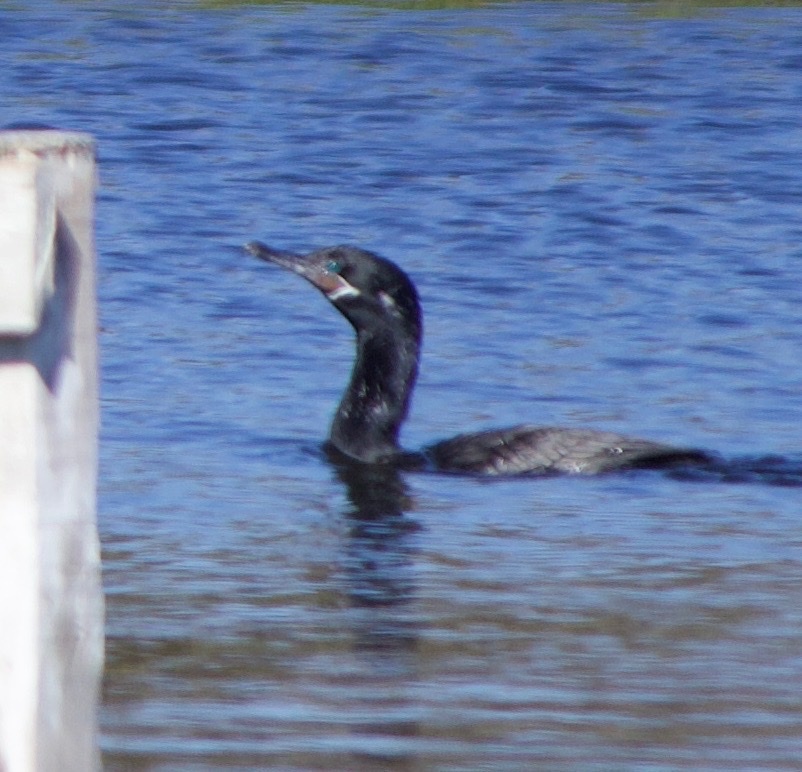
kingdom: Animalia
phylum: Chordata
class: Aves
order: Suliformes
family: Phalacrocoracidae
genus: Phalacrocorax
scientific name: Phalacrocorax brasilianus
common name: Neotropic cormorant
